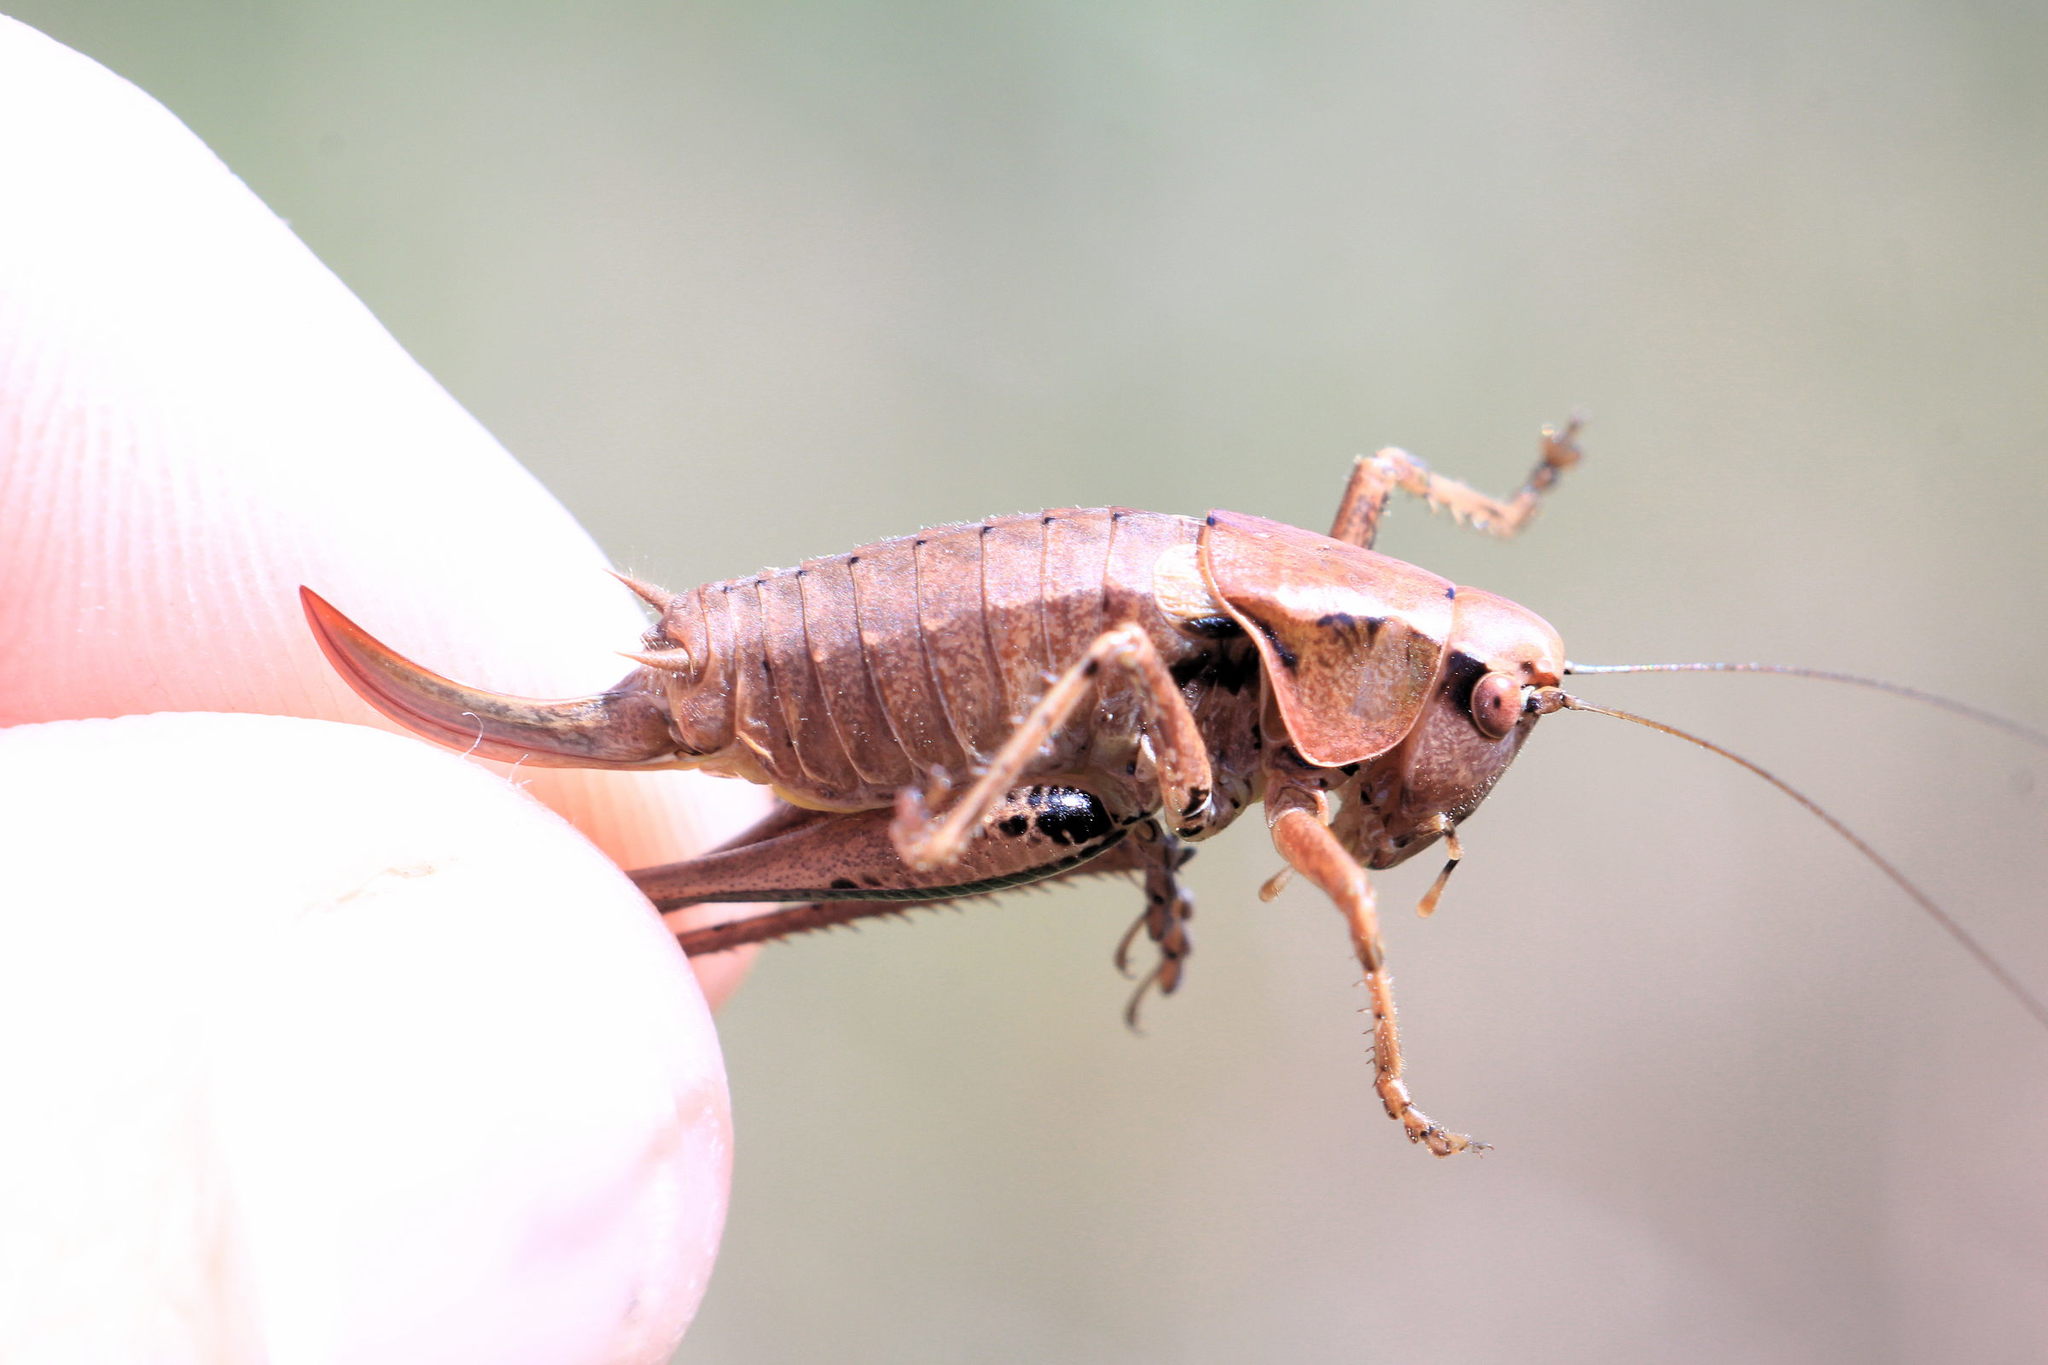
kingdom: Animalia
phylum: Arthropoda
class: Insecta
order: Orthoptera
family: Tettigoniidae
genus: Pholidoptera
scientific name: Pholidoptera griseoaptera
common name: Dark bush-cricket
